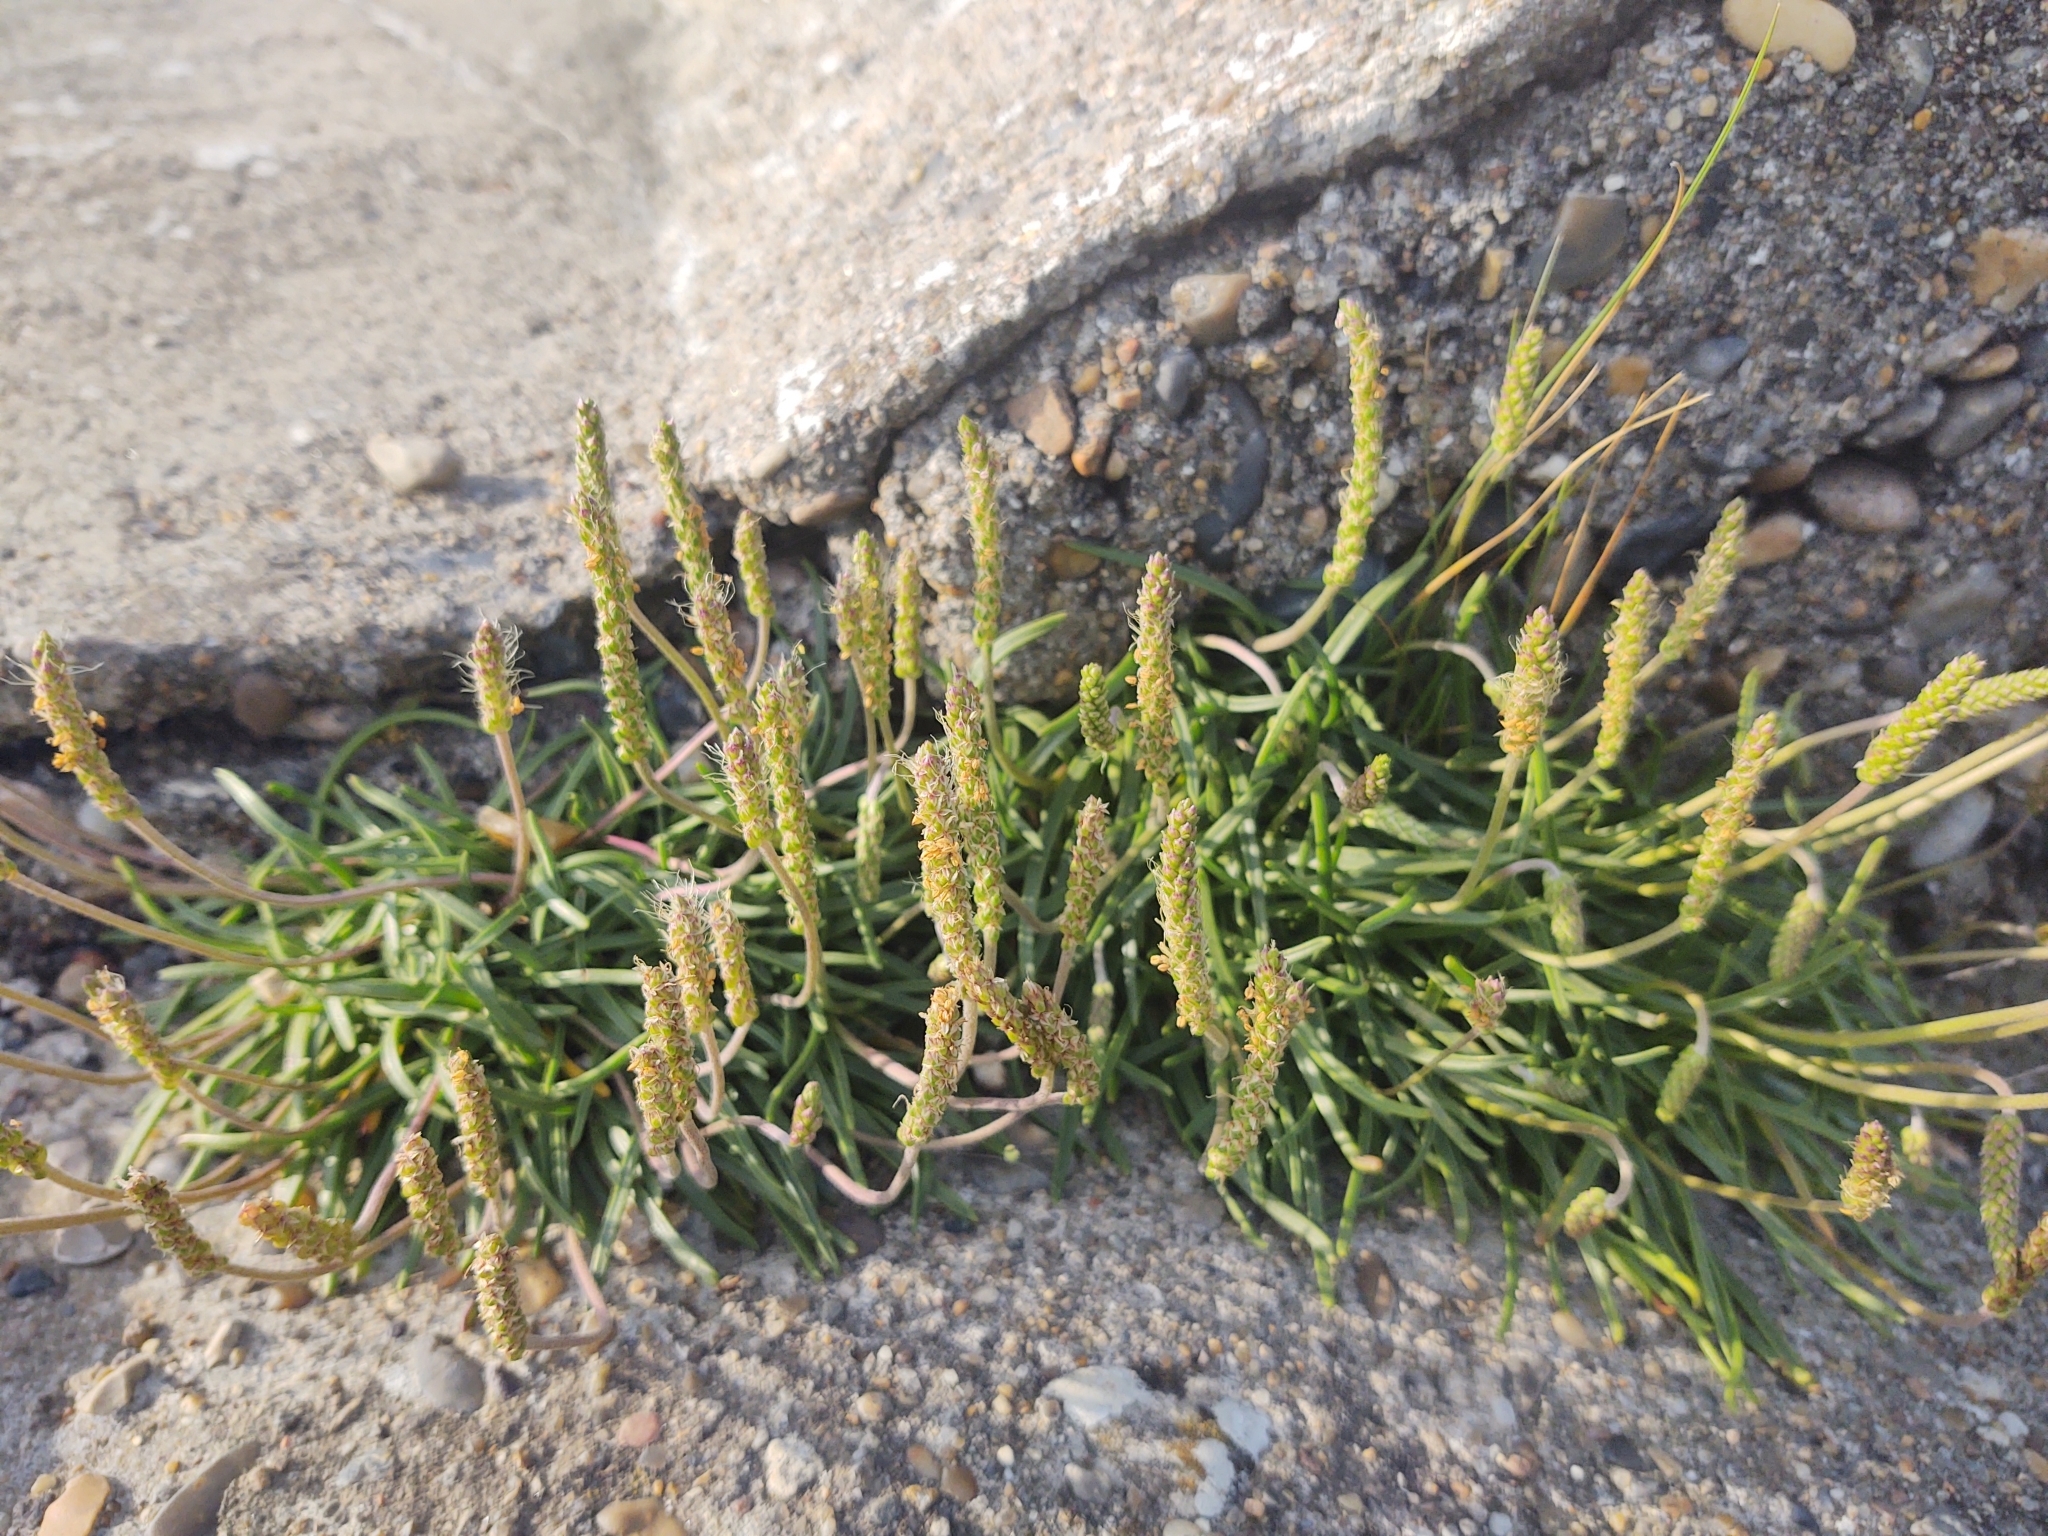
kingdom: Plantae
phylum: Tracheophyta
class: Magnoliopsida
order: Lamiales
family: Plantaginaceae
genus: Plantago
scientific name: Plantago maritima
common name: Sea plantain
